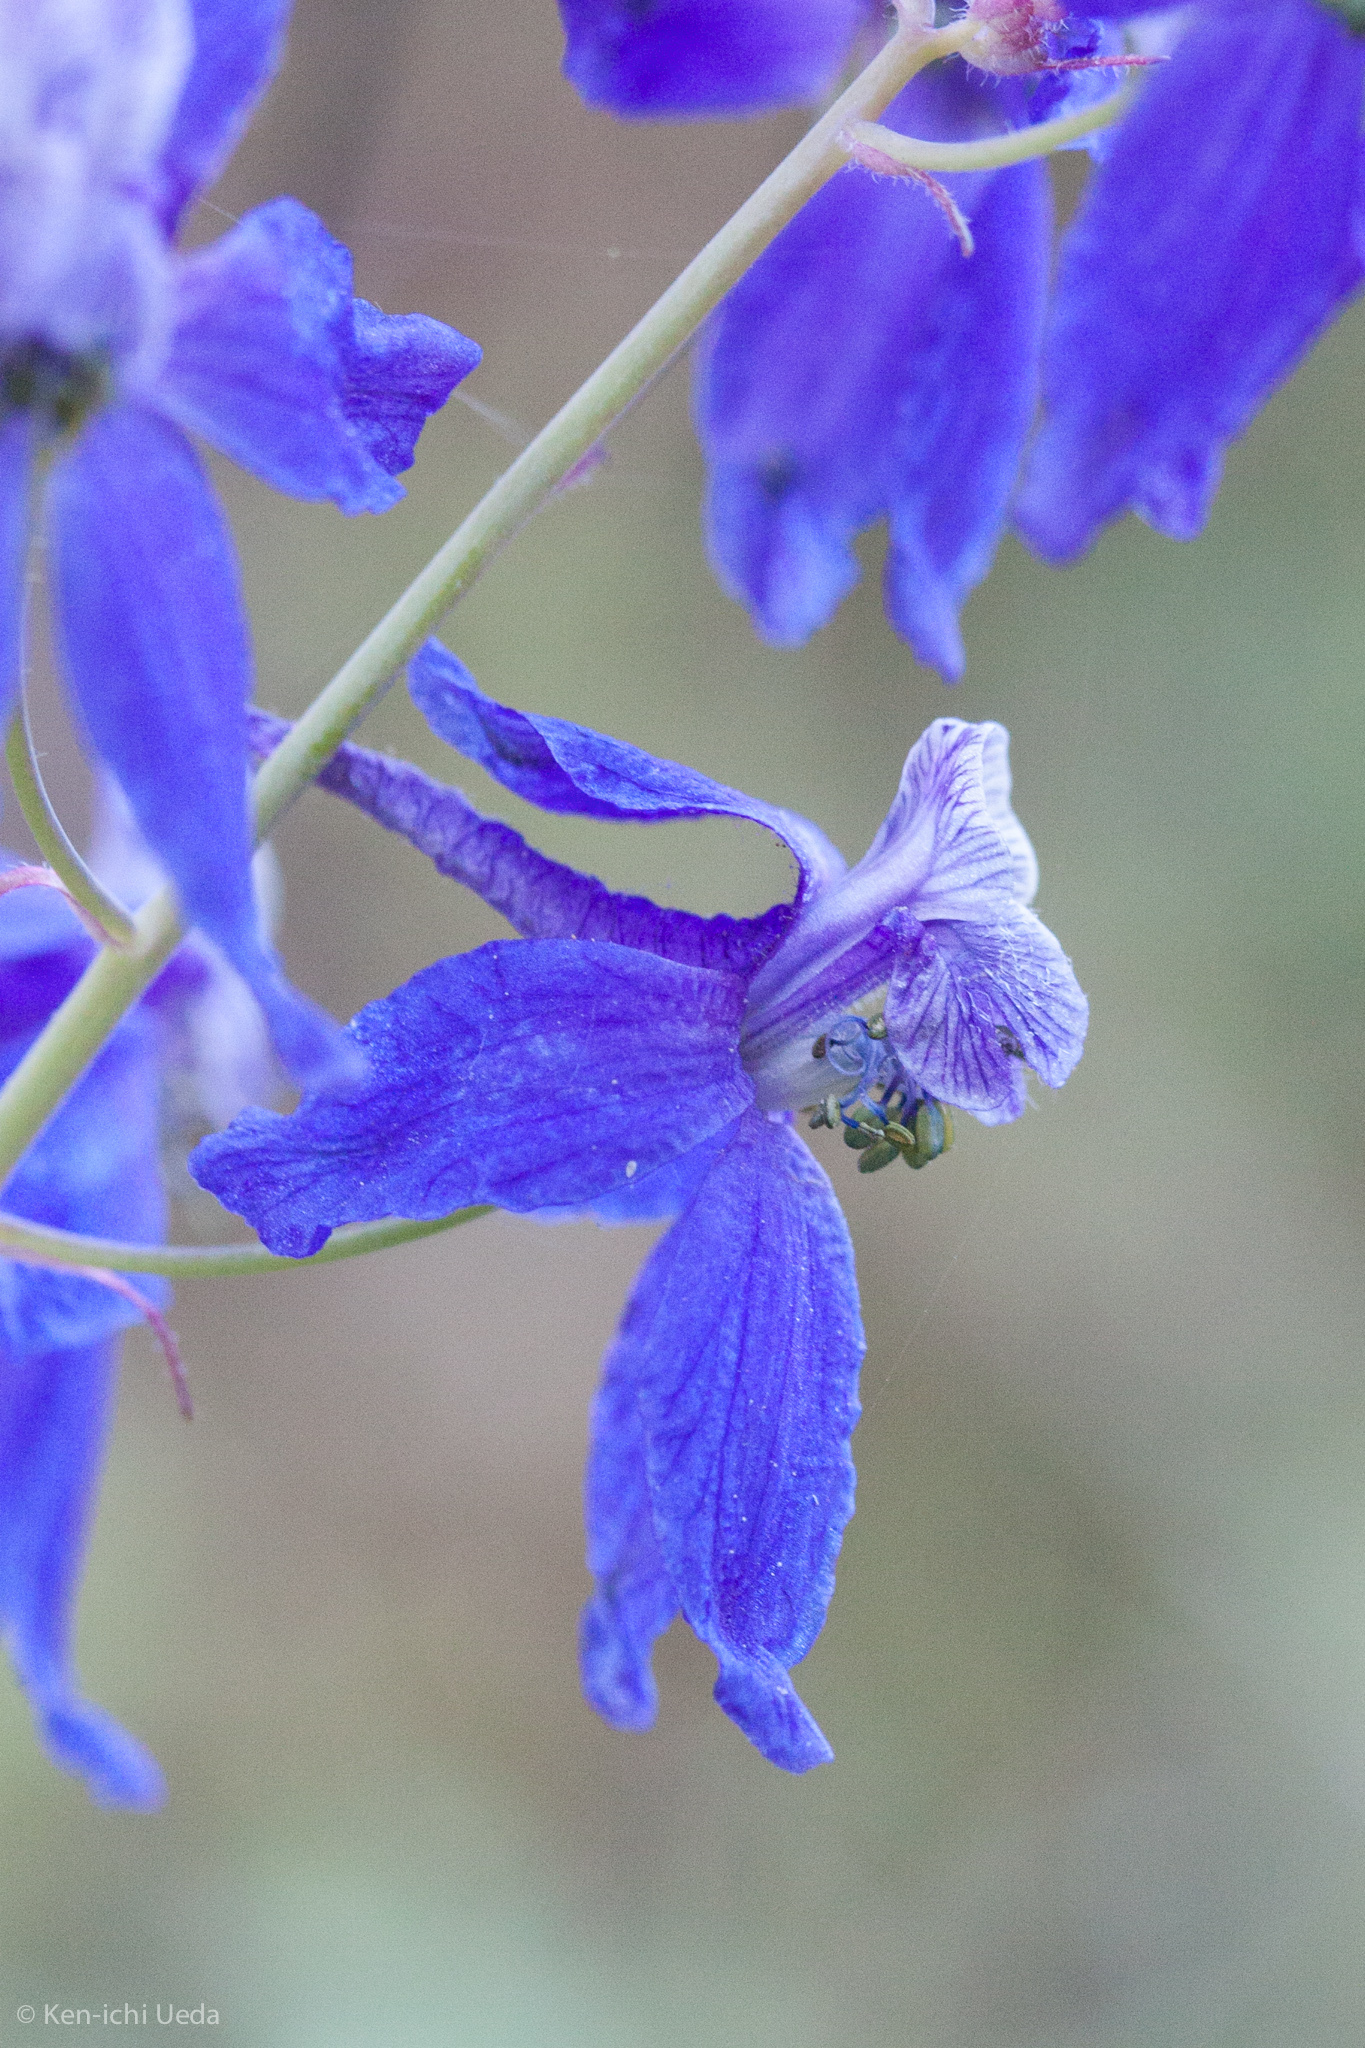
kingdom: Plantae
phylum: Tracheophyta
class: Magnoliopsida
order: Ranunculales
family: Ranunculaceae
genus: Delphinium
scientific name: Delphinium patens
